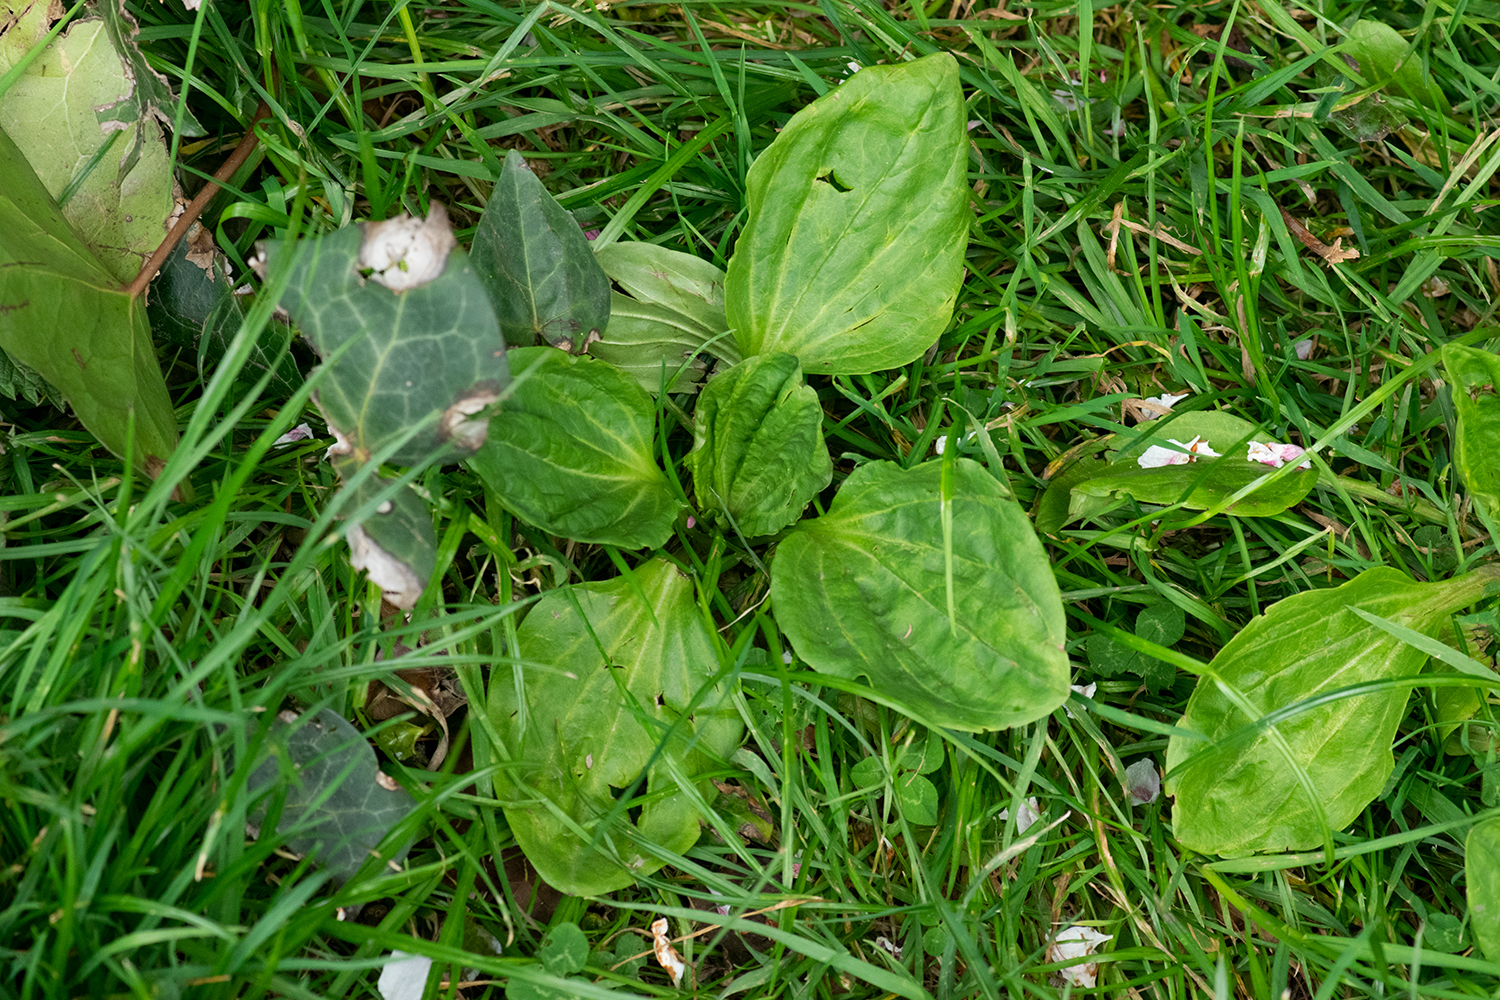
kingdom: Plantae
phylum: Tracheophyta
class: Magnoliopsida
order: Lamiales
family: Plantaginaceae
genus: Plantago
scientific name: Plantago major
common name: Common plantain
